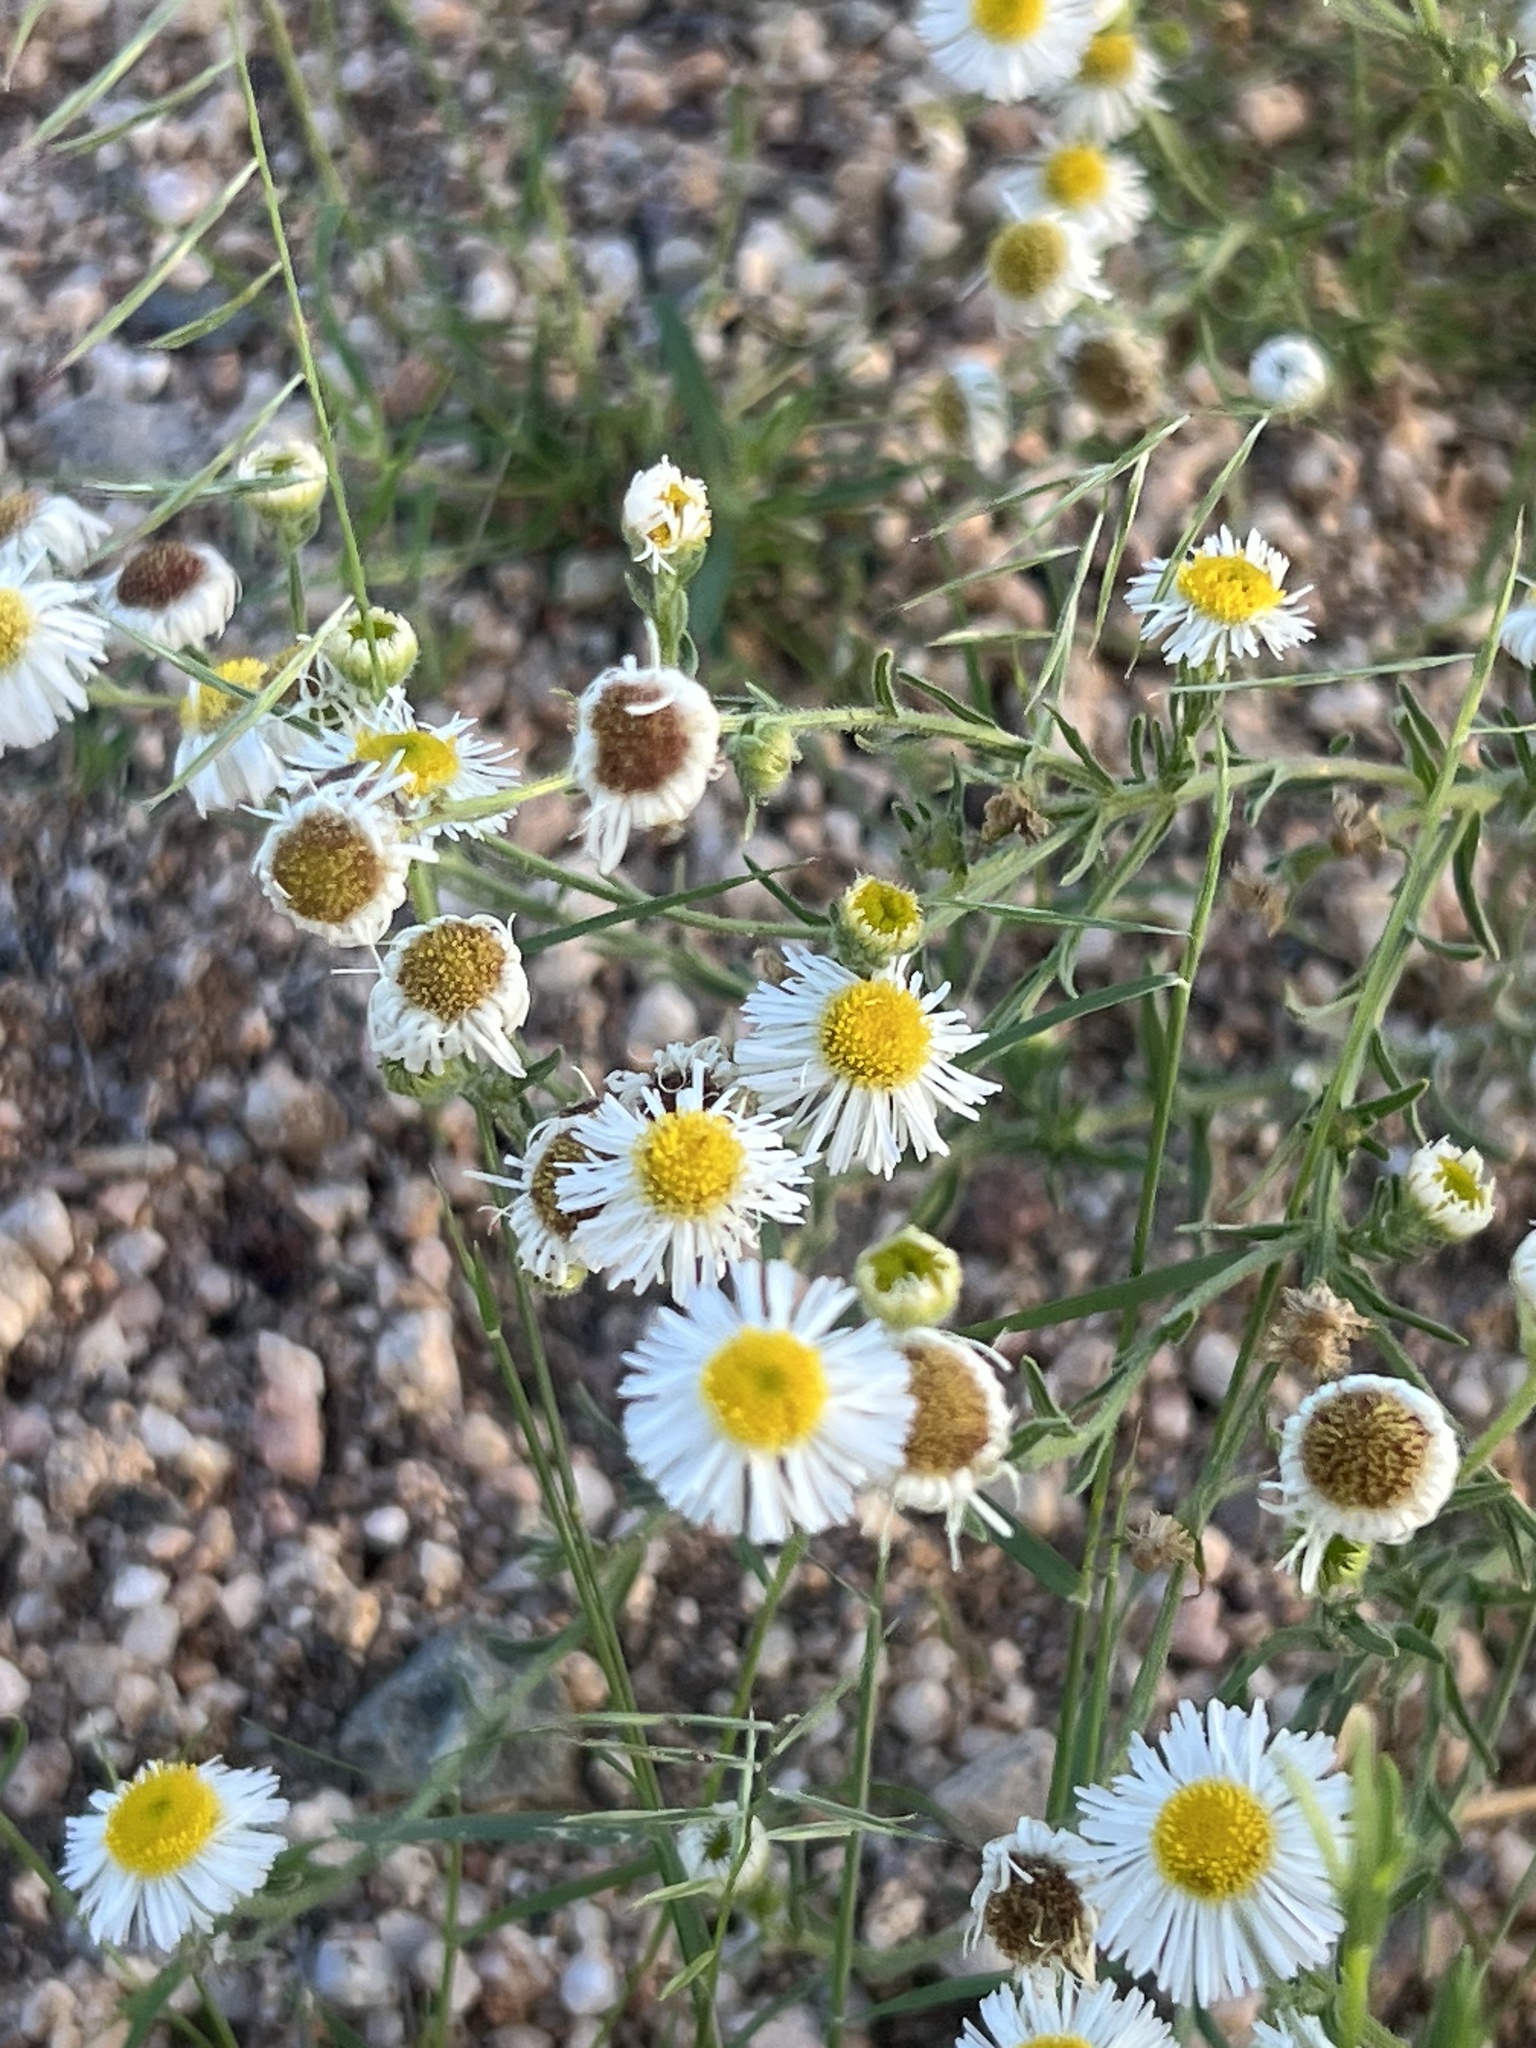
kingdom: Plantae
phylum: Tracheophyta
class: Magnoliopsida
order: Asterales
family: Asteraceae
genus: Erigeron
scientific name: Erigeron divergens
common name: Diffuse fleabane
